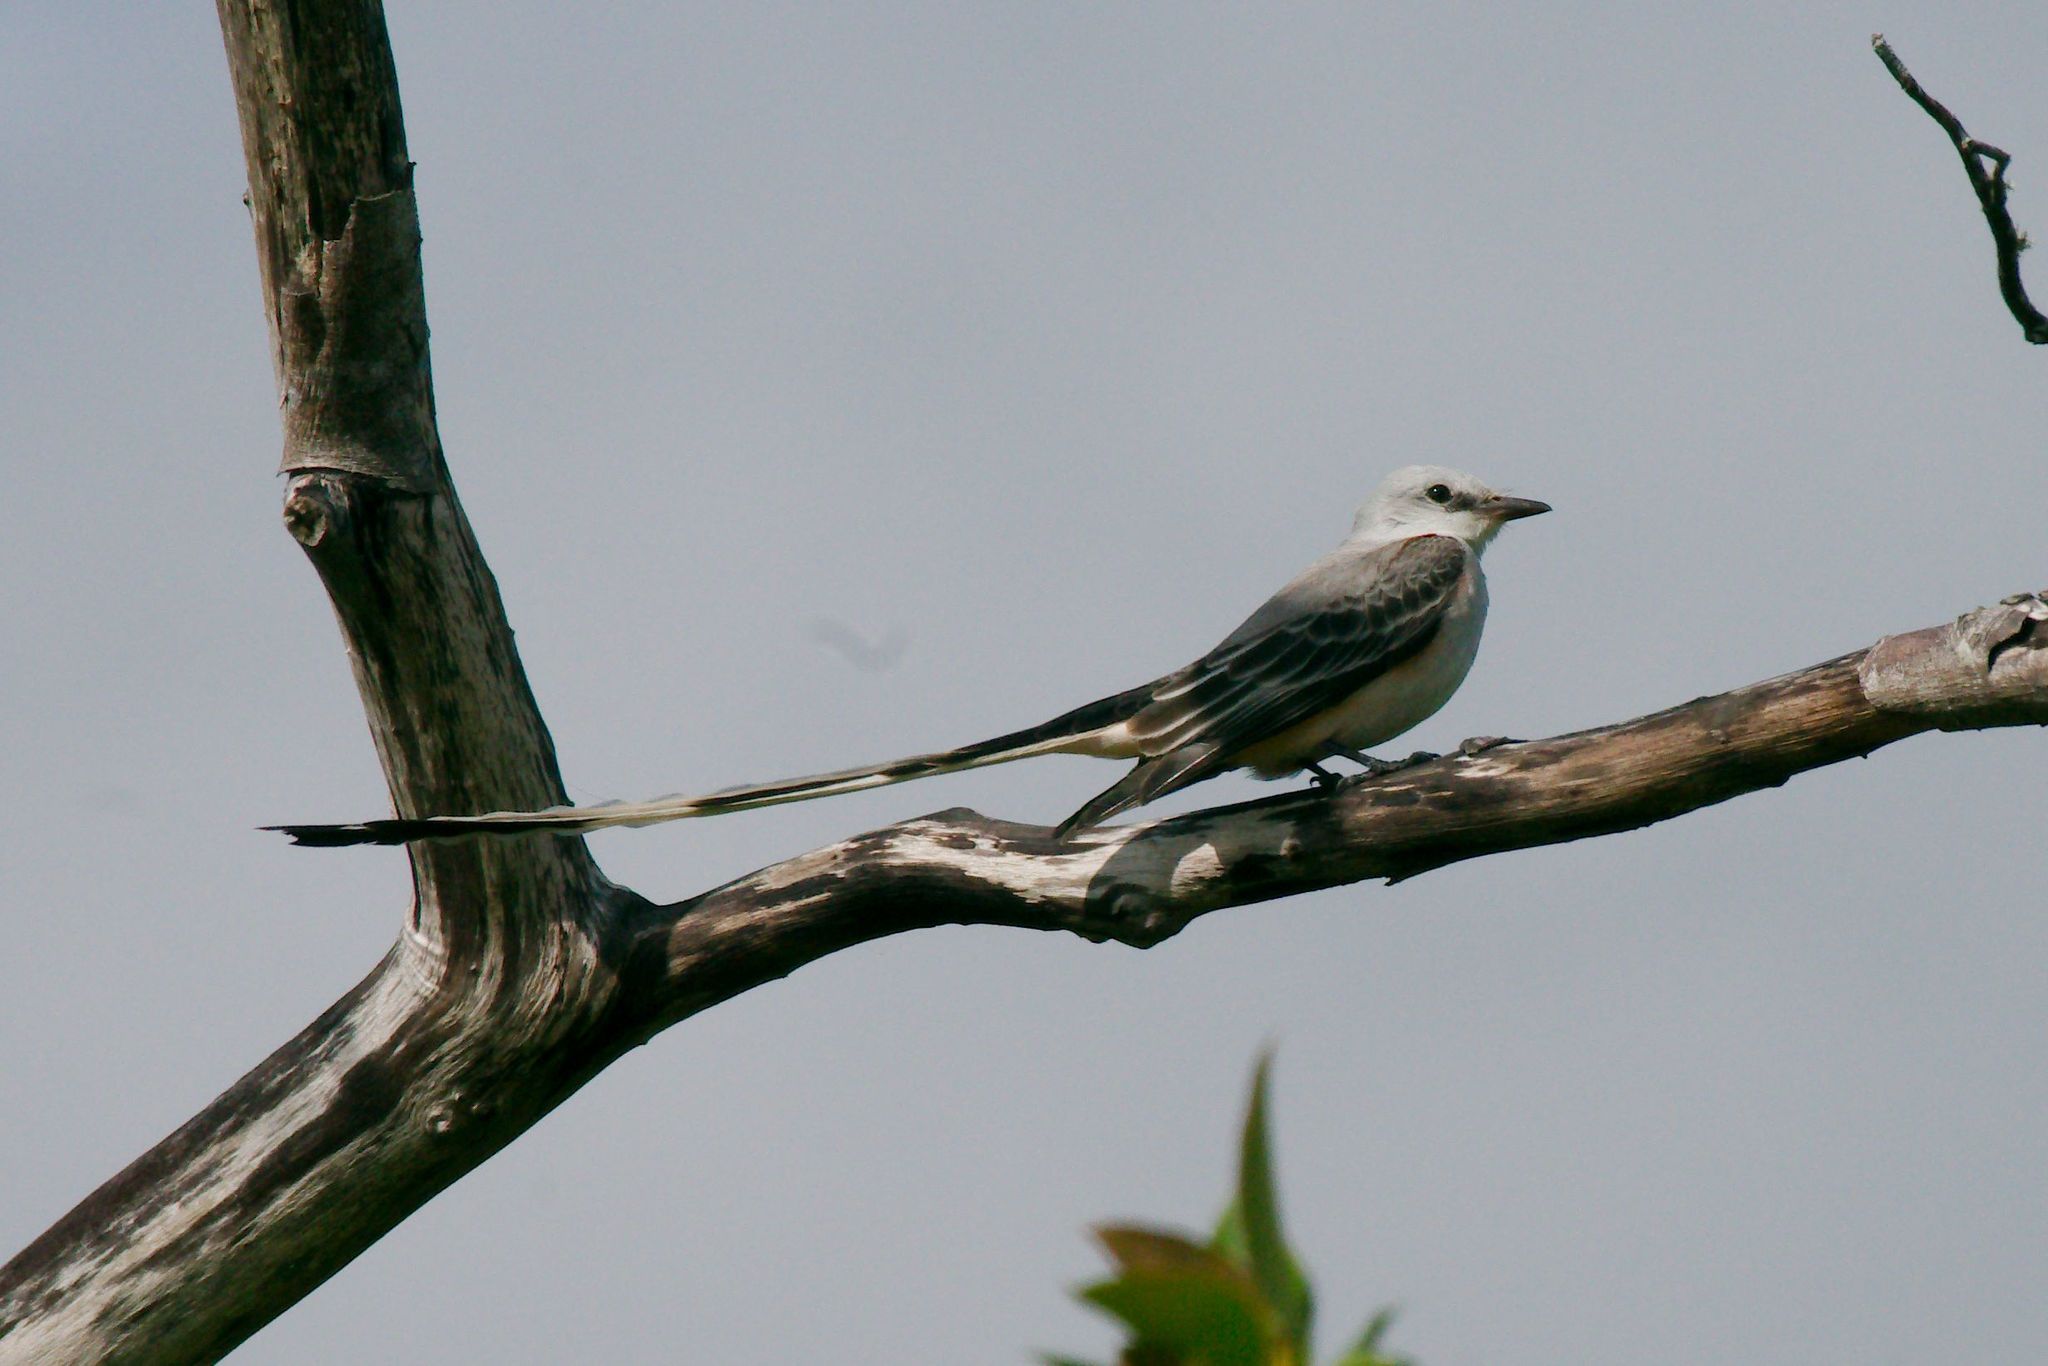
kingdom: Animalia
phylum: Chordata
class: Aves
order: Passeriformes
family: Tyrannidae
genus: Tyrannus
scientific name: Tyrannus forficatus
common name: Scissor-tailed flycatcher
